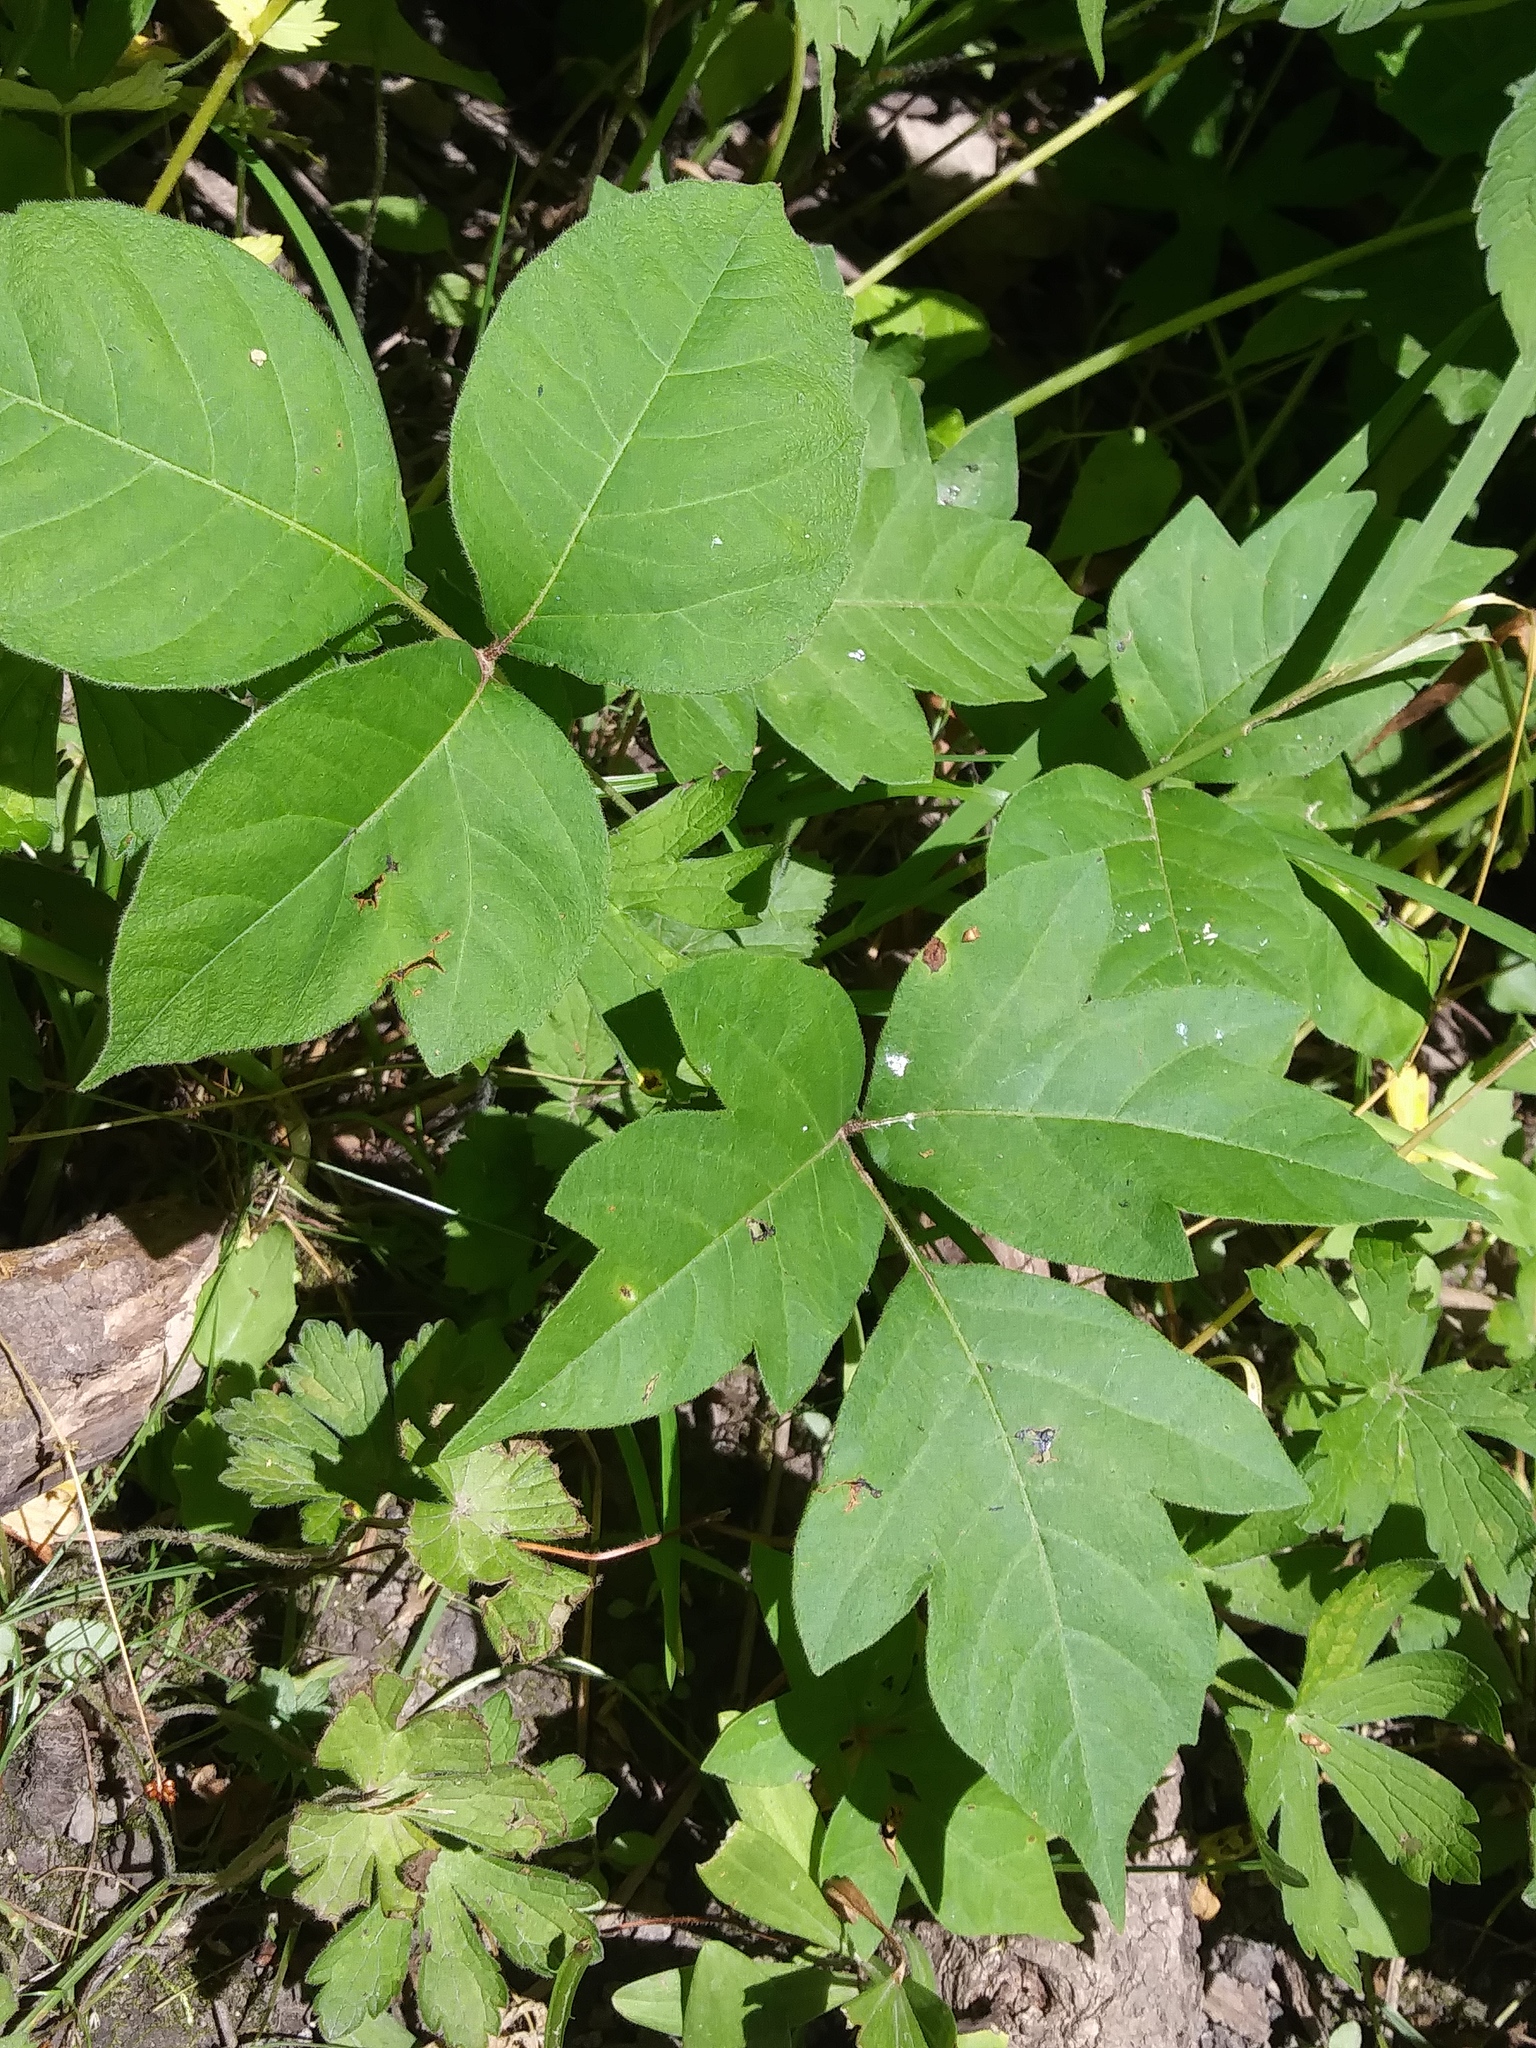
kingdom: Plantae
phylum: Tracheophyta
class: Magnoliopsida
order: Sapindales
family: Anacardiaceae
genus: Toxicodendron
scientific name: Toxicodendron radicans
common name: Poison ivy
